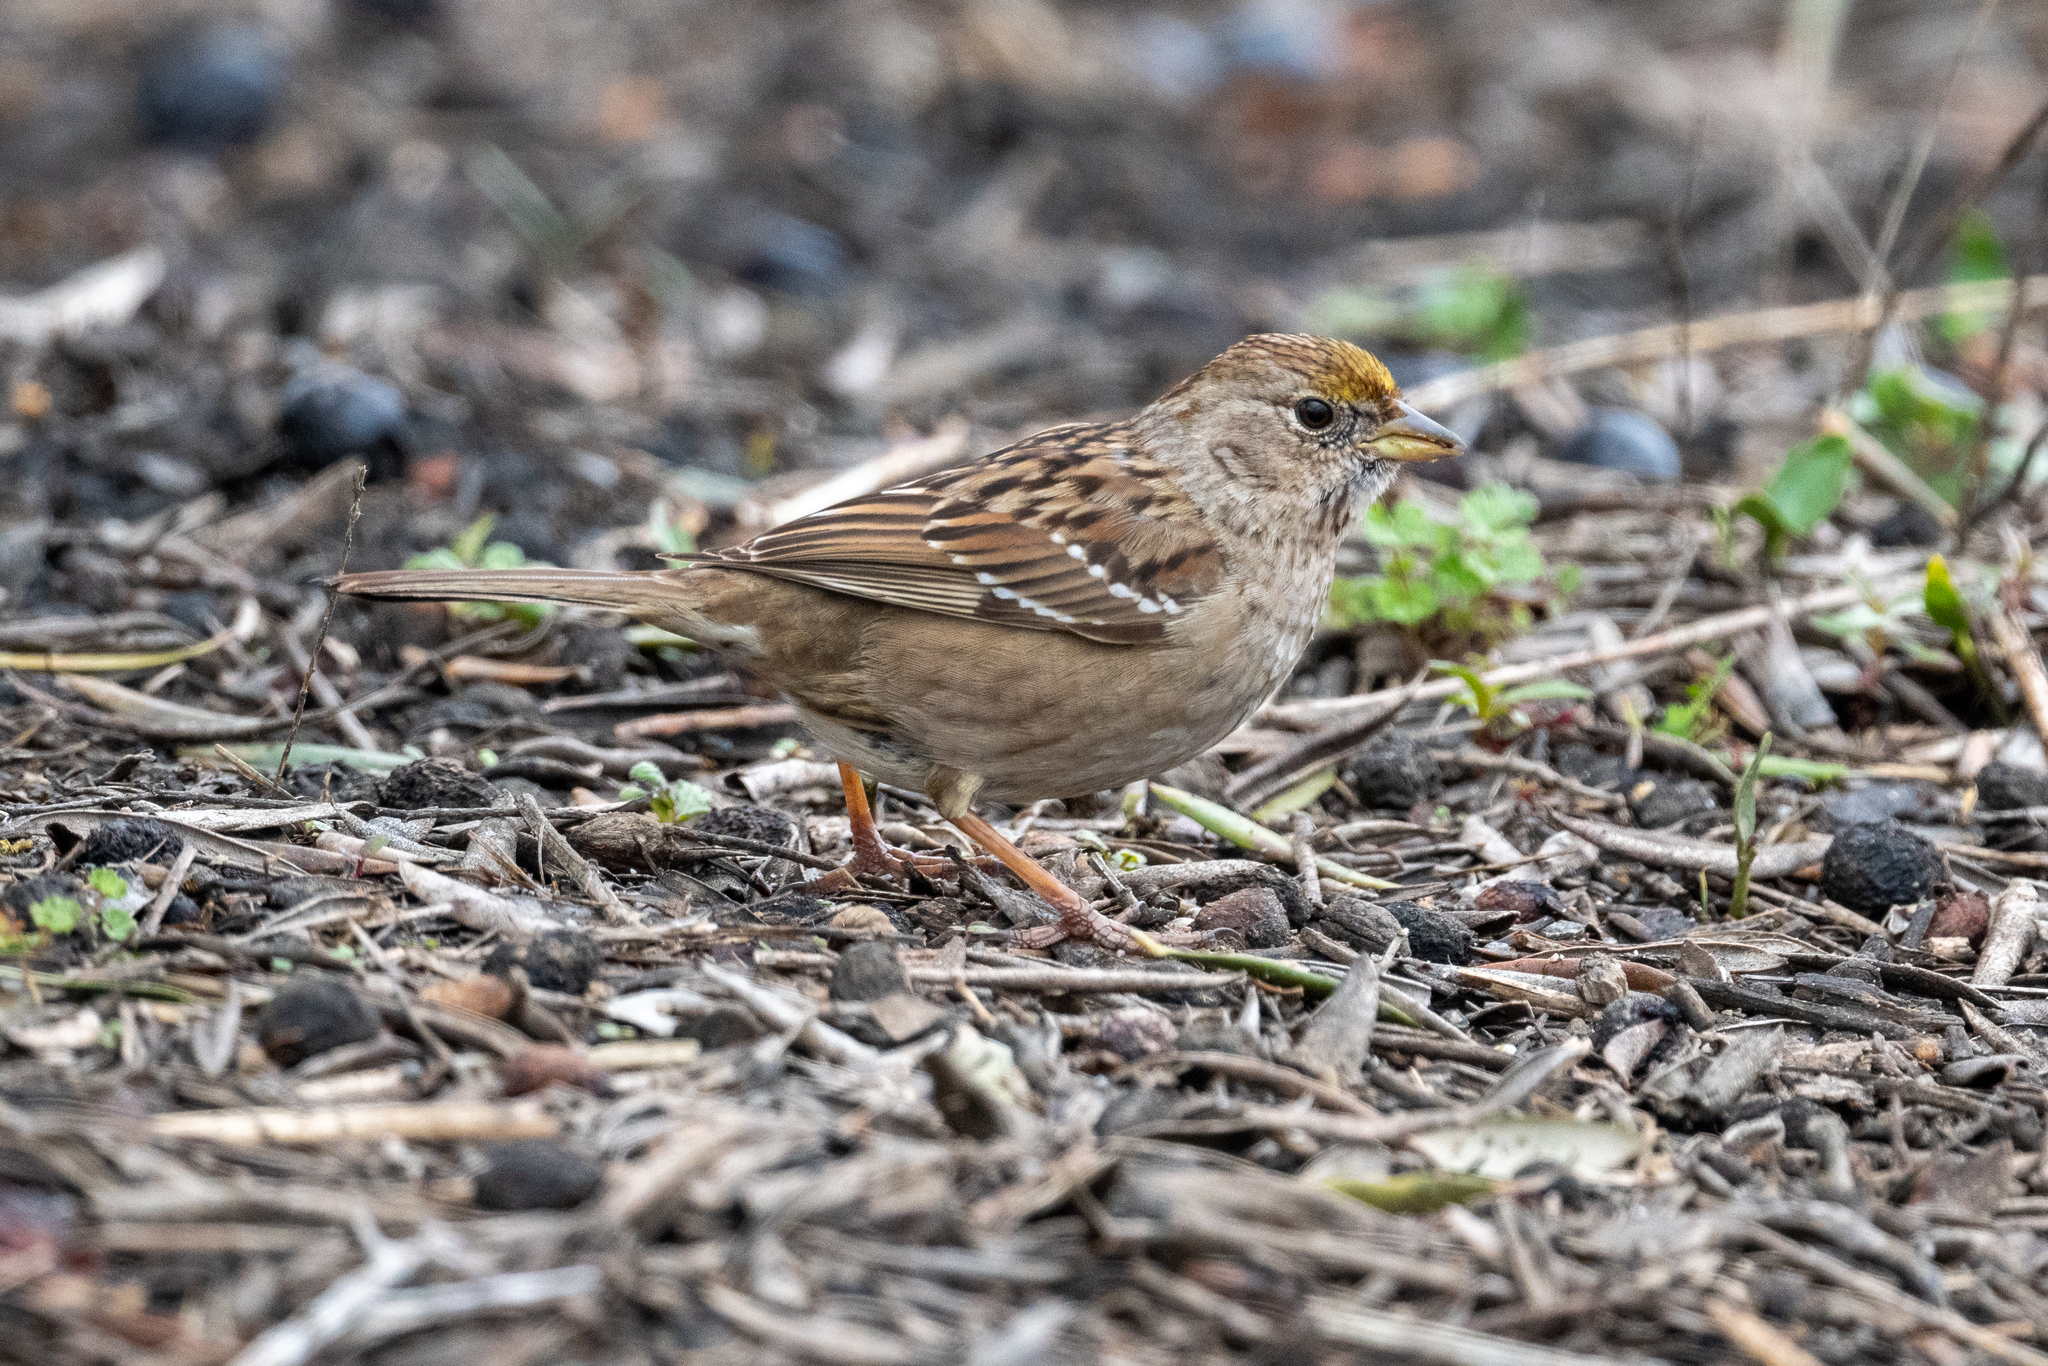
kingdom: Animalia
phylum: Chordata
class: Aves
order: Passeriformes
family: Passerellidae
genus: Zonotrichia
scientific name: Zonotrichia atricapilla
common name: Golden-crowned sparrow
